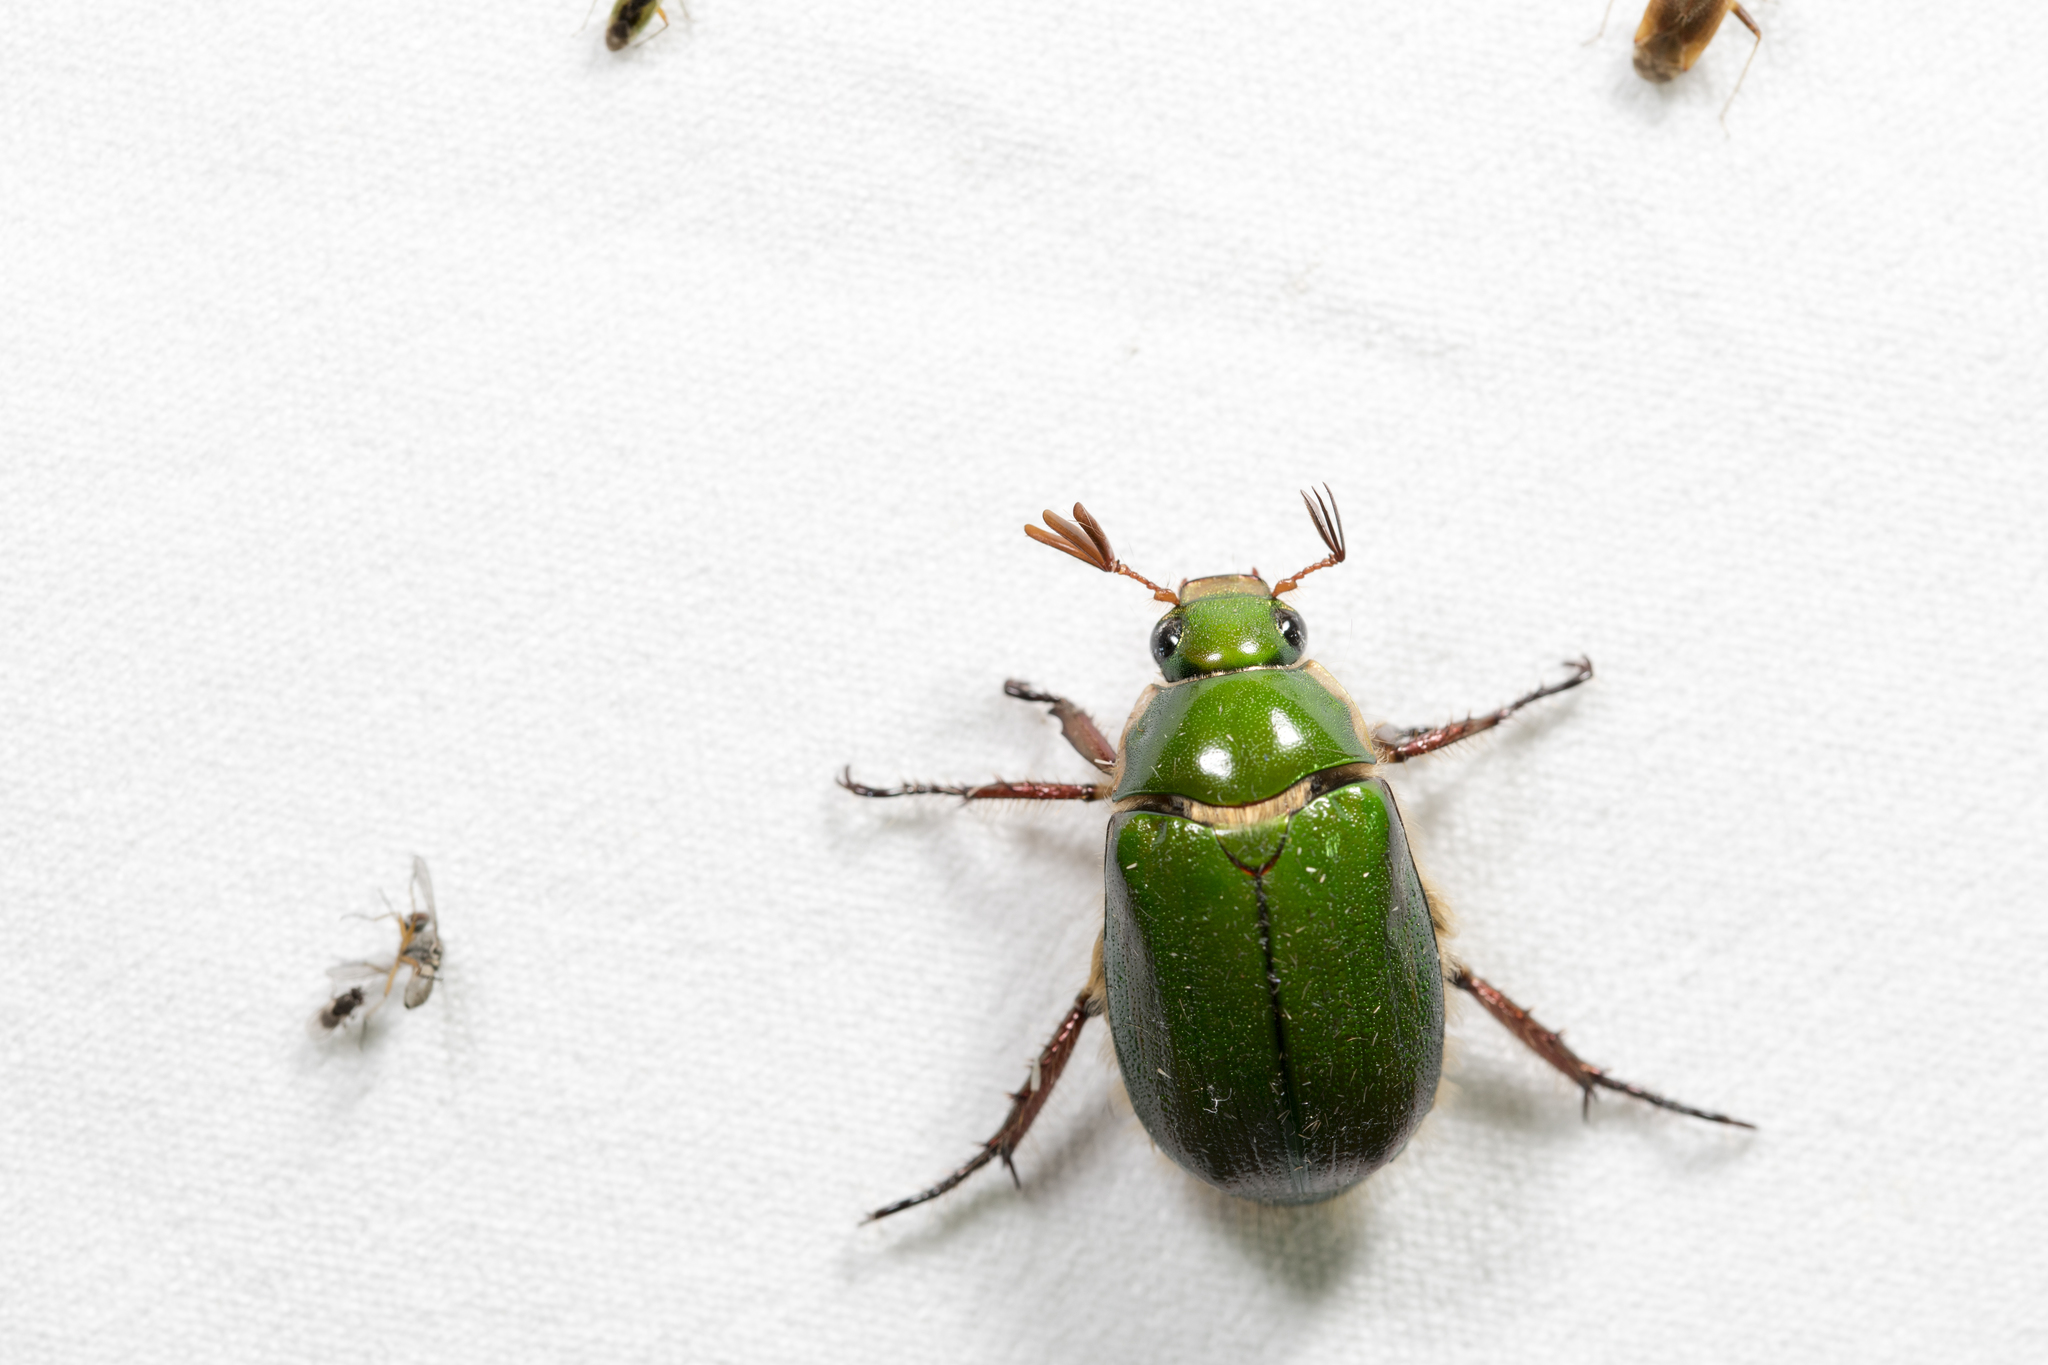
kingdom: Animalia
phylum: Arthropoda
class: Insecta
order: Coleoptera
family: Scarabaeidae
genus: Mimela
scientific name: Mimela passerinii
